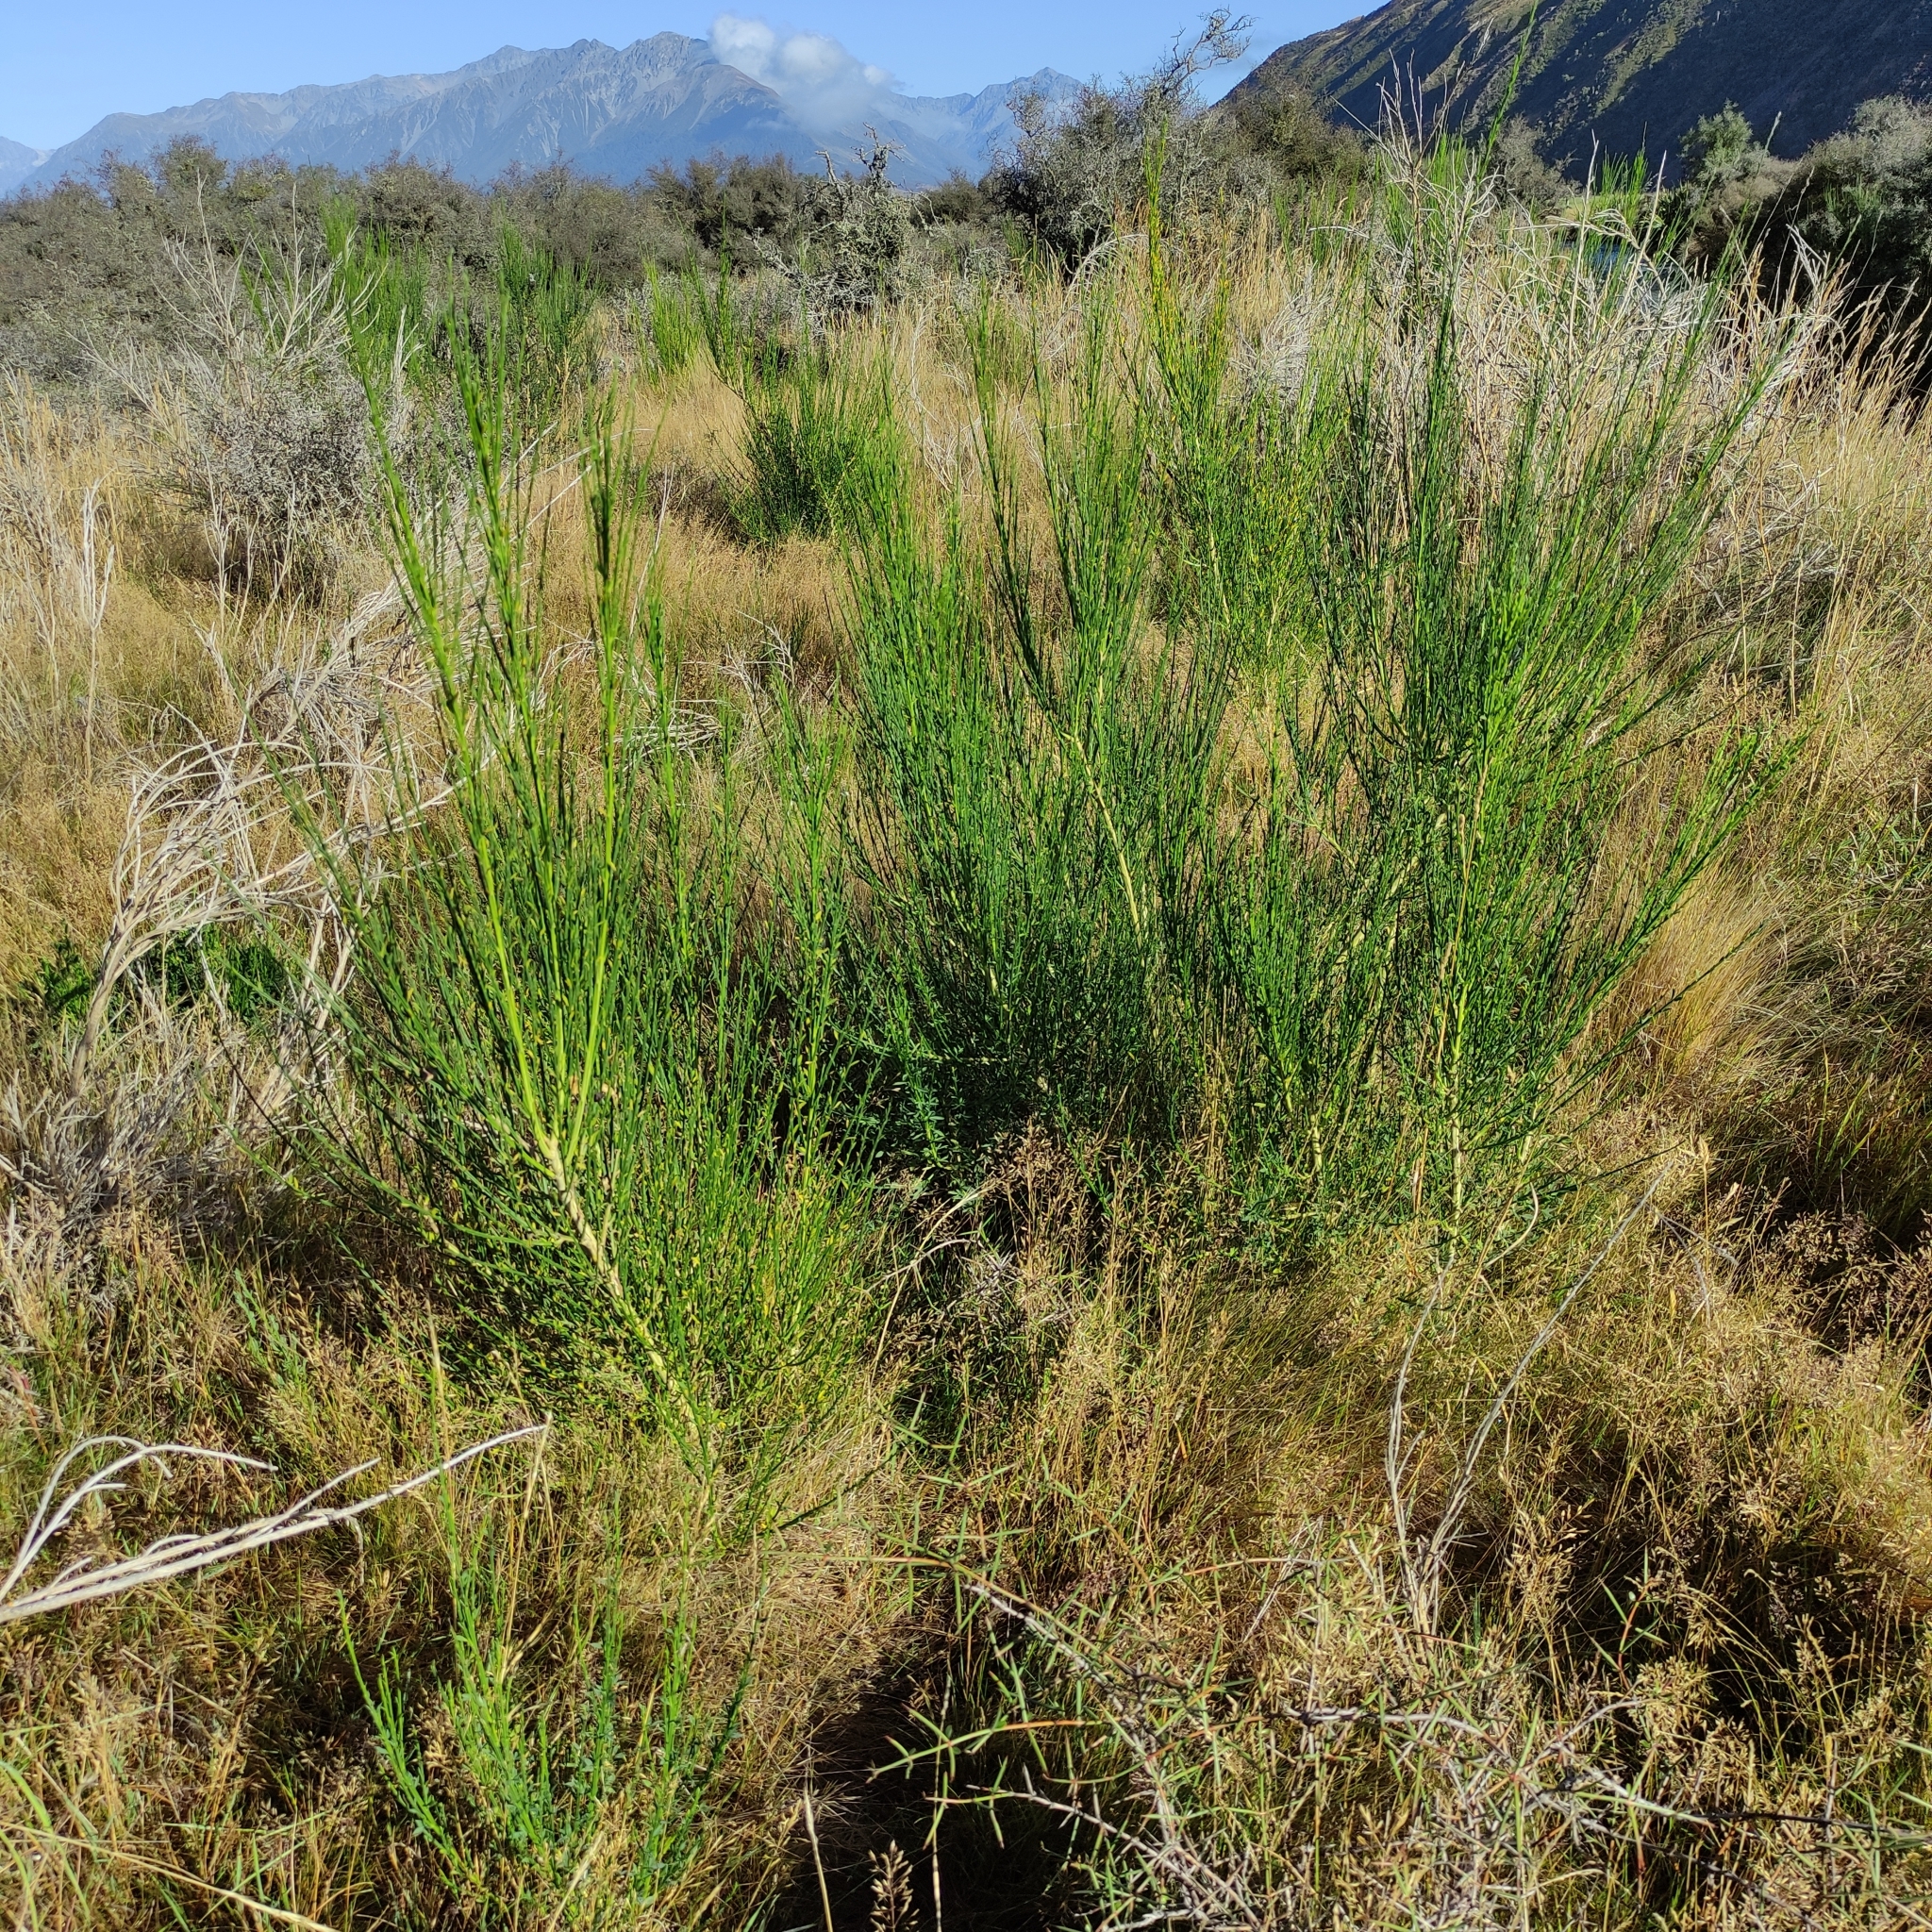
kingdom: Plantae
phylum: Tracheophyta
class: Magnoliopsida
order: Fabales
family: Fabaceae
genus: Cytisus
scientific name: Cytisus scoparius
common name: Scotch broom
